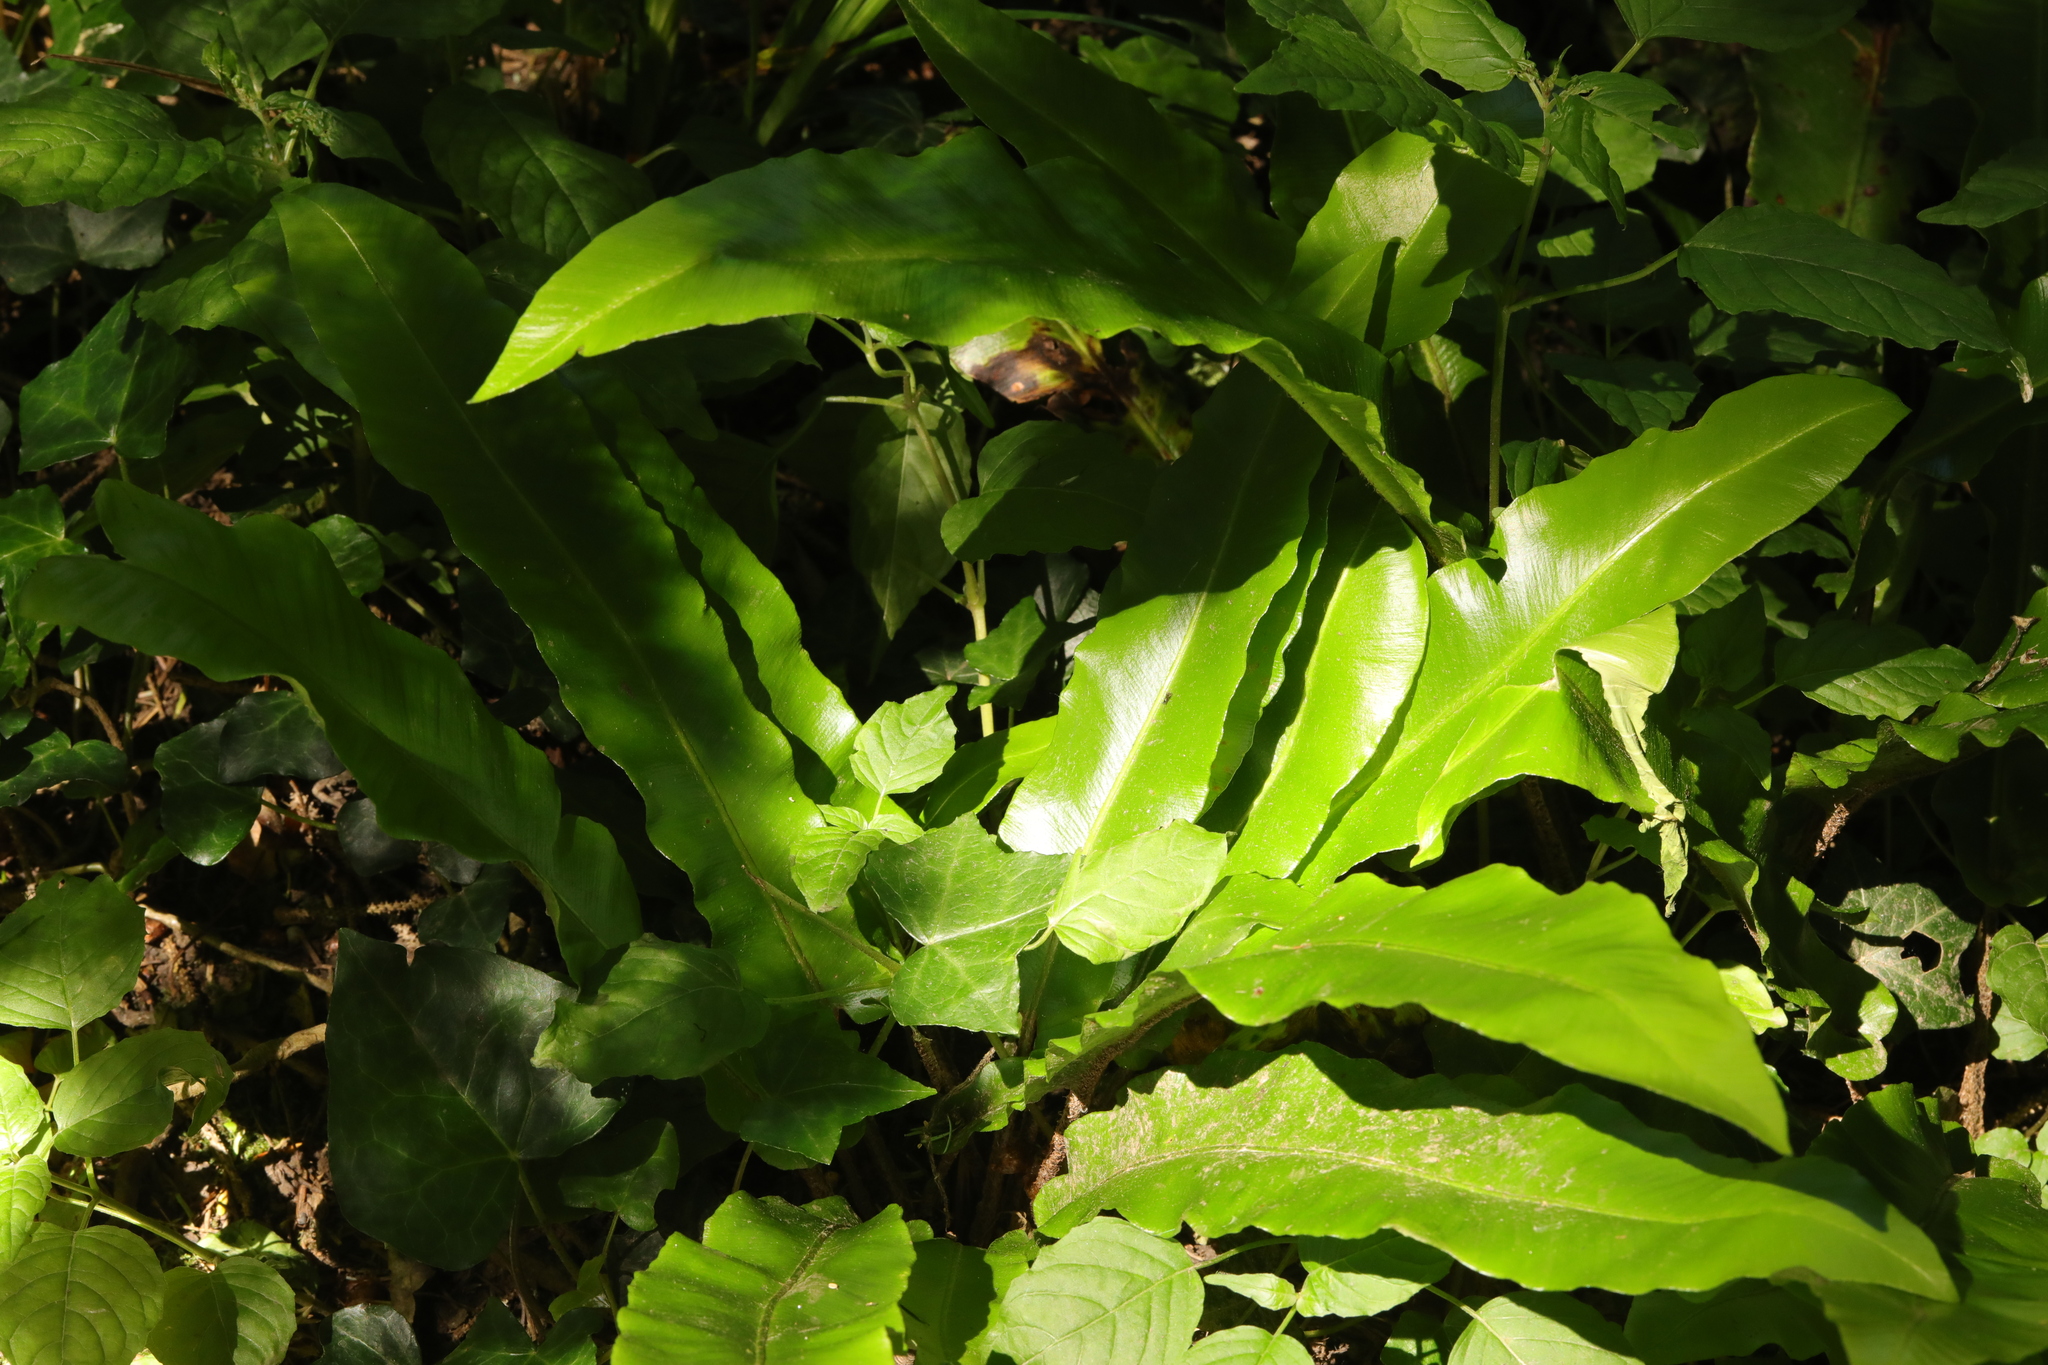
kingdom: Plantae
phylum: Tracheophyta
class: Polypodiopsida
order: Polypodiales
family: Aspleniaceae
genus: Asplenium
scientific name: Asplenium scolopendrium
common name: Hart's-tongue fern
